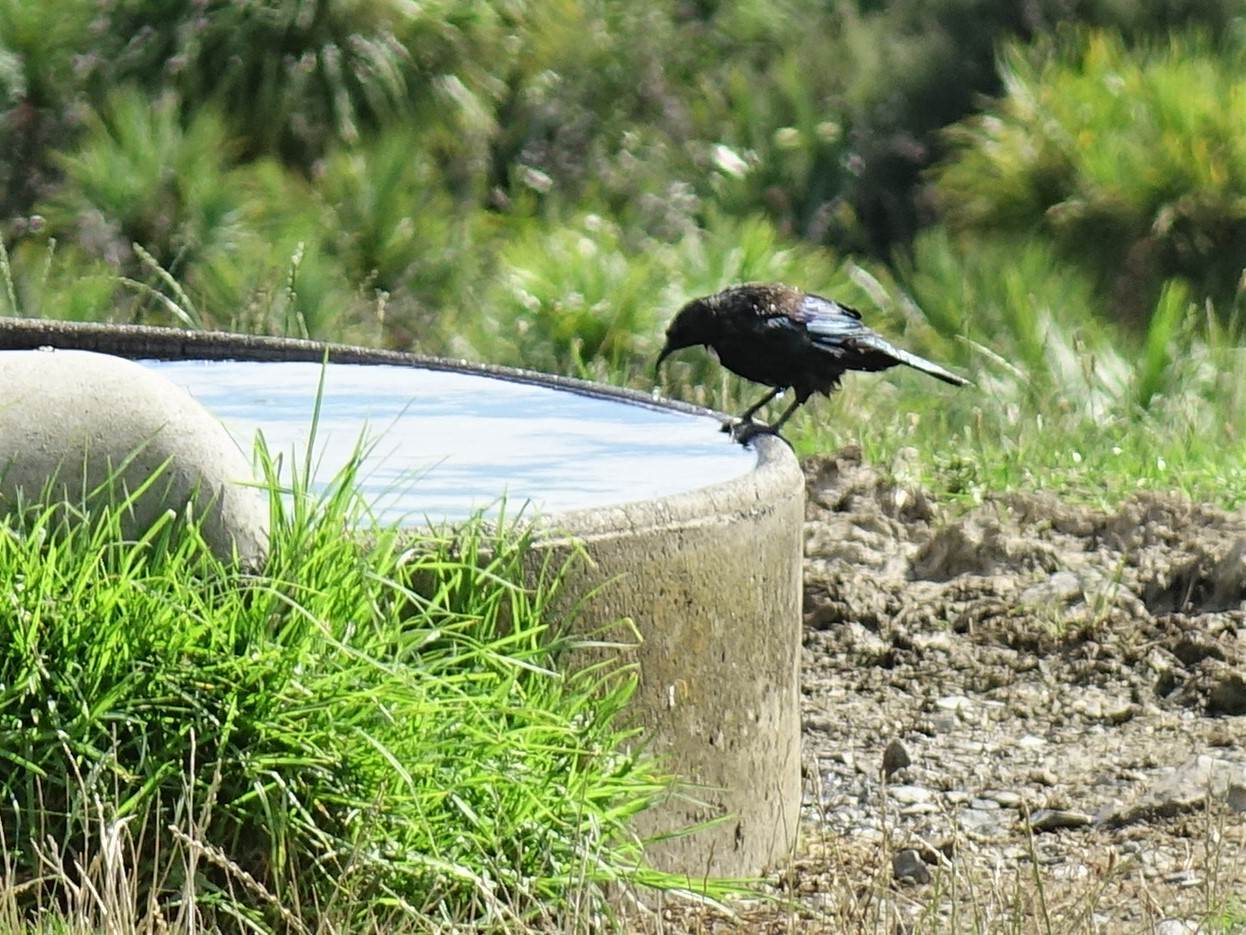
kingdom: Animalia
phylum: Chordata
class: Aves
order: Passeriformes
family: Meliphagidae
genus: Prosthemadera
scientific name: Prosthemadera novaeseelandiae
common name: Tui
